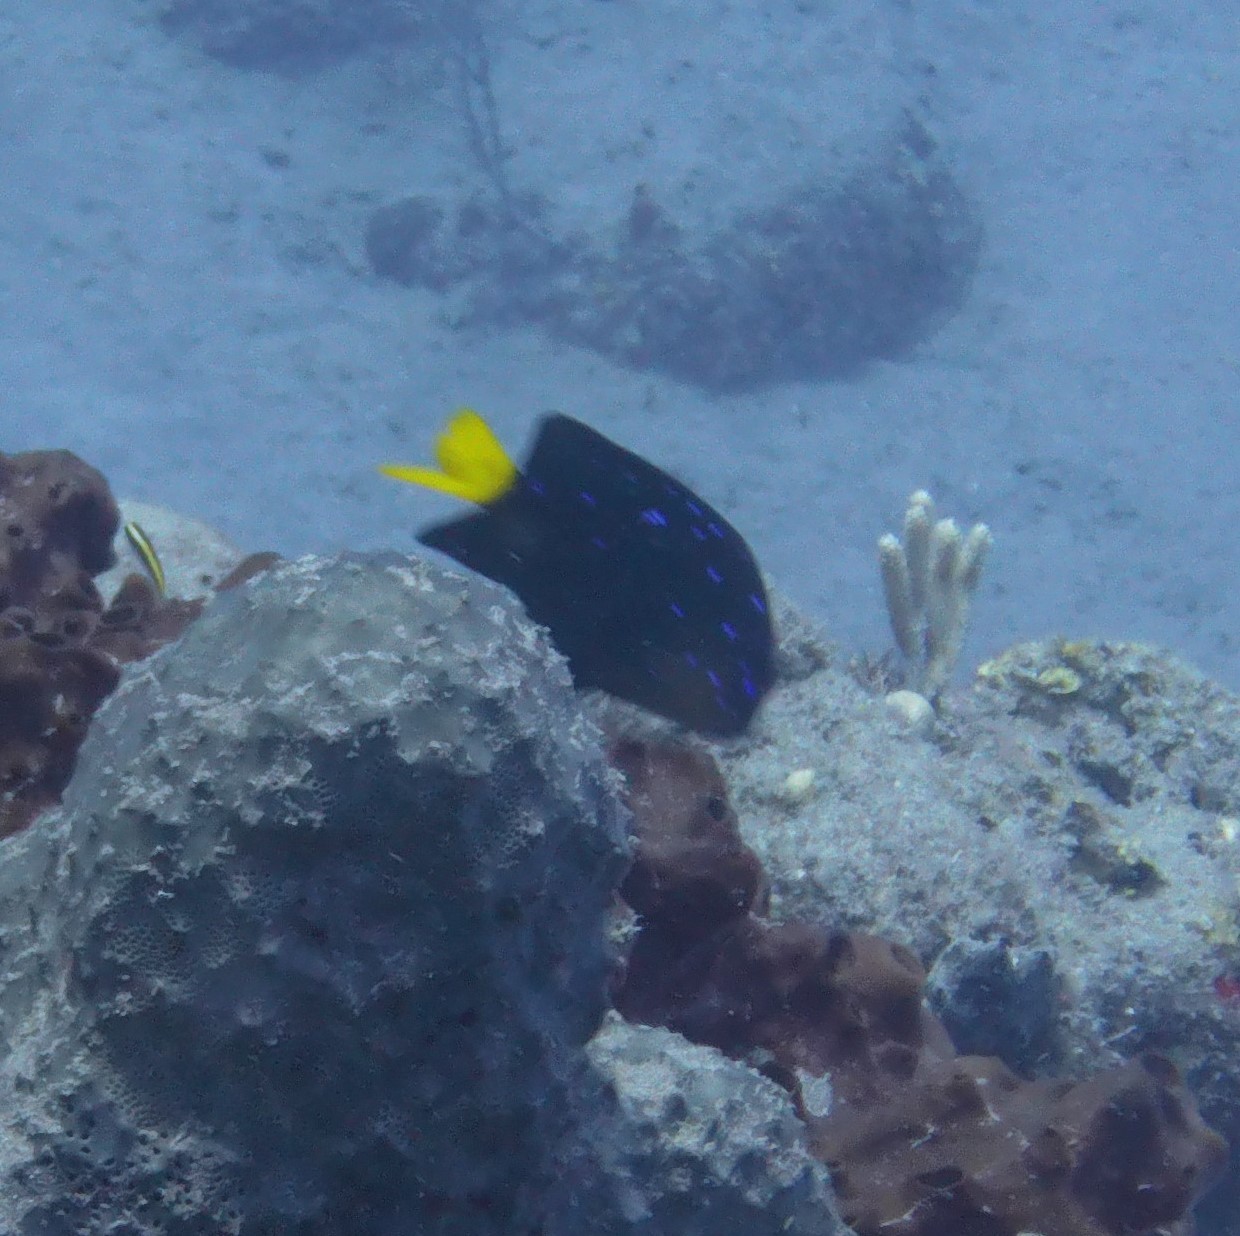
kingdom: Animalia
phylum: Chordata
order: Perciformes
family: Pomacentridae
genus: Microspathodon
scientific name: Microspathodon chrysurus
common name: Yellowtail damselfish
